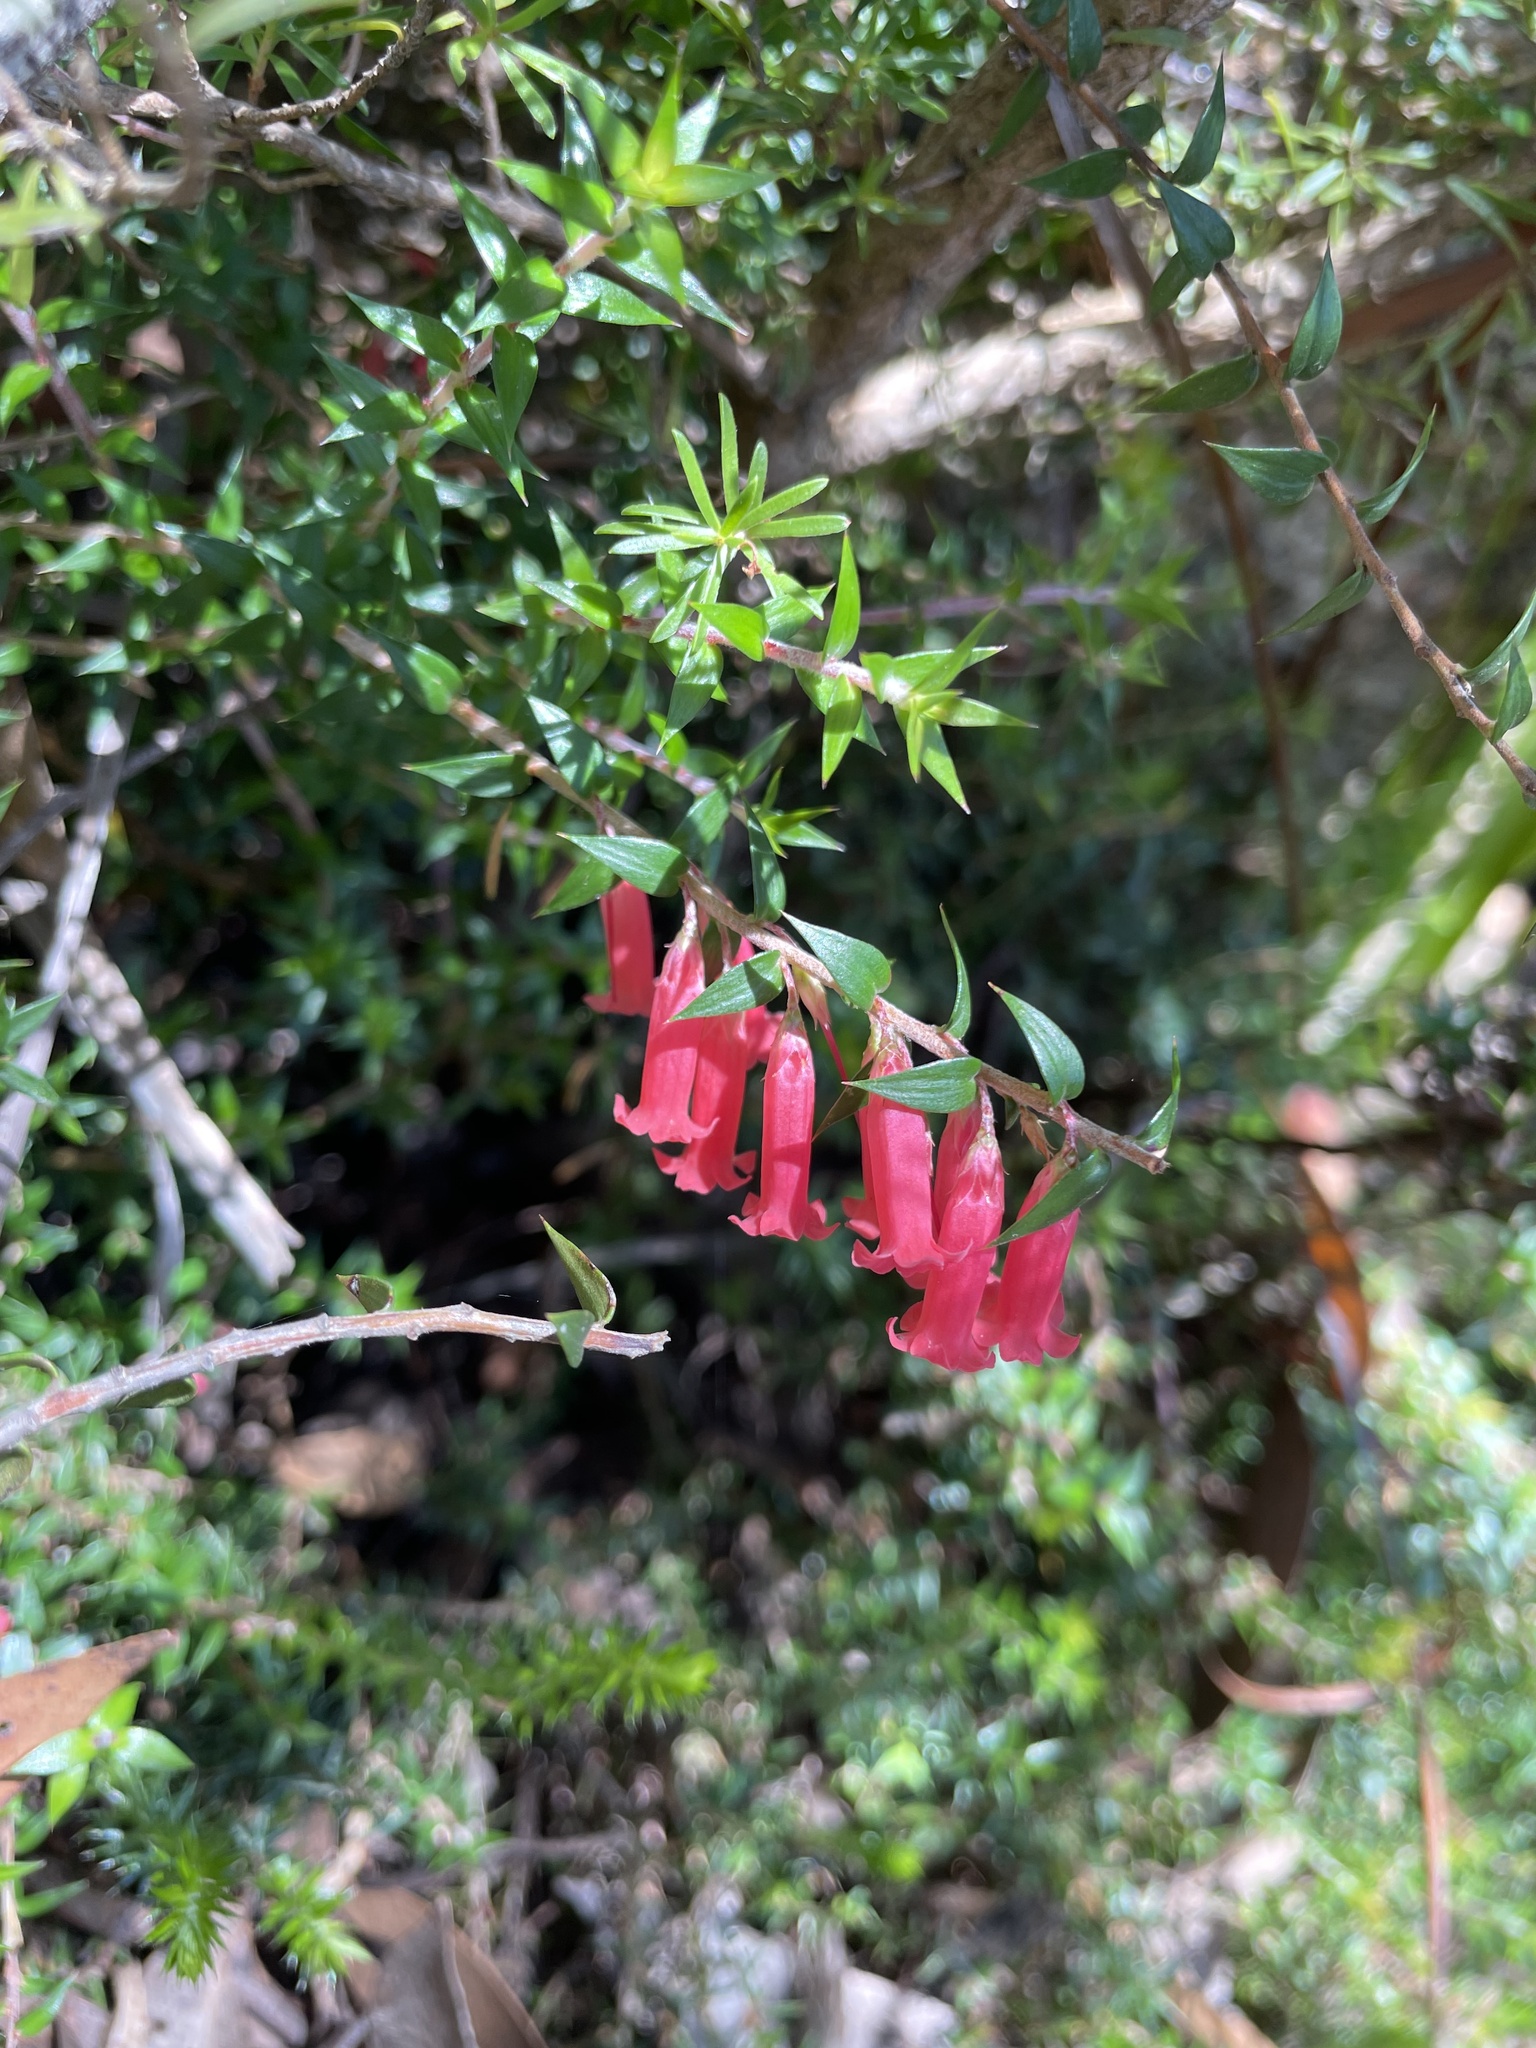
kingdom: Plantae
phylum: Tracheophyta
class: Magnoliopsida
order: Ericales
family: Ericaceae
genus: Epacris
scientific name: Epacris impressa
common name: Common-heath
